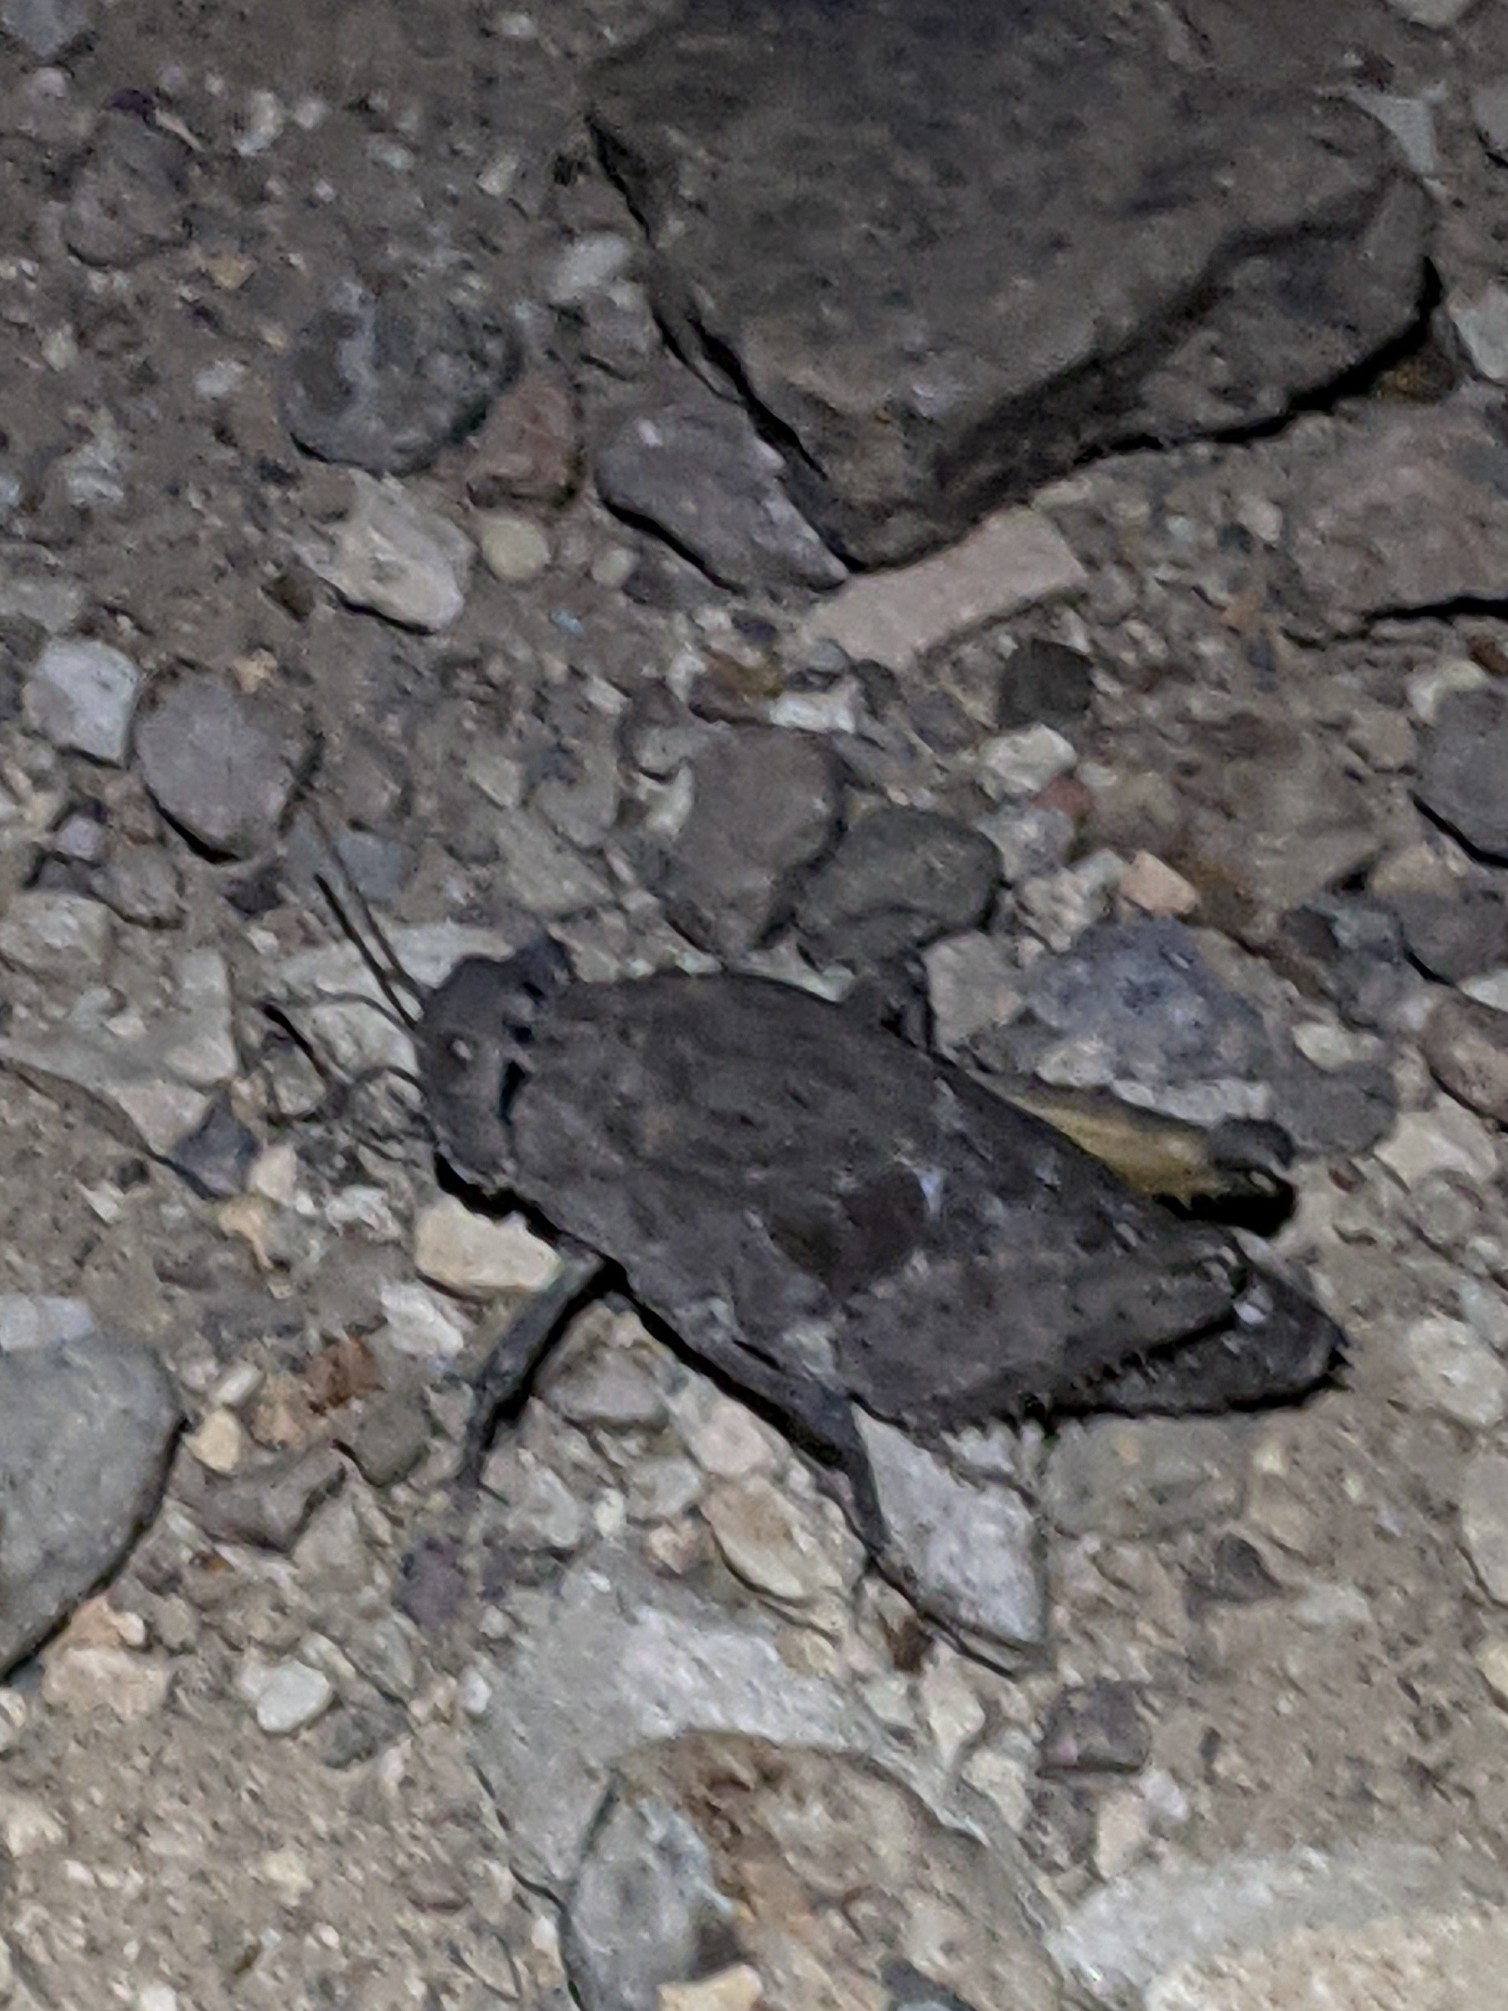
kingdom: Animalia
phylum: Arthropoda
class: Insecta
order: Orthoptera
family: Romaleidae
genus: Phrynotettix
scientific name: Phrynotettix robustus
